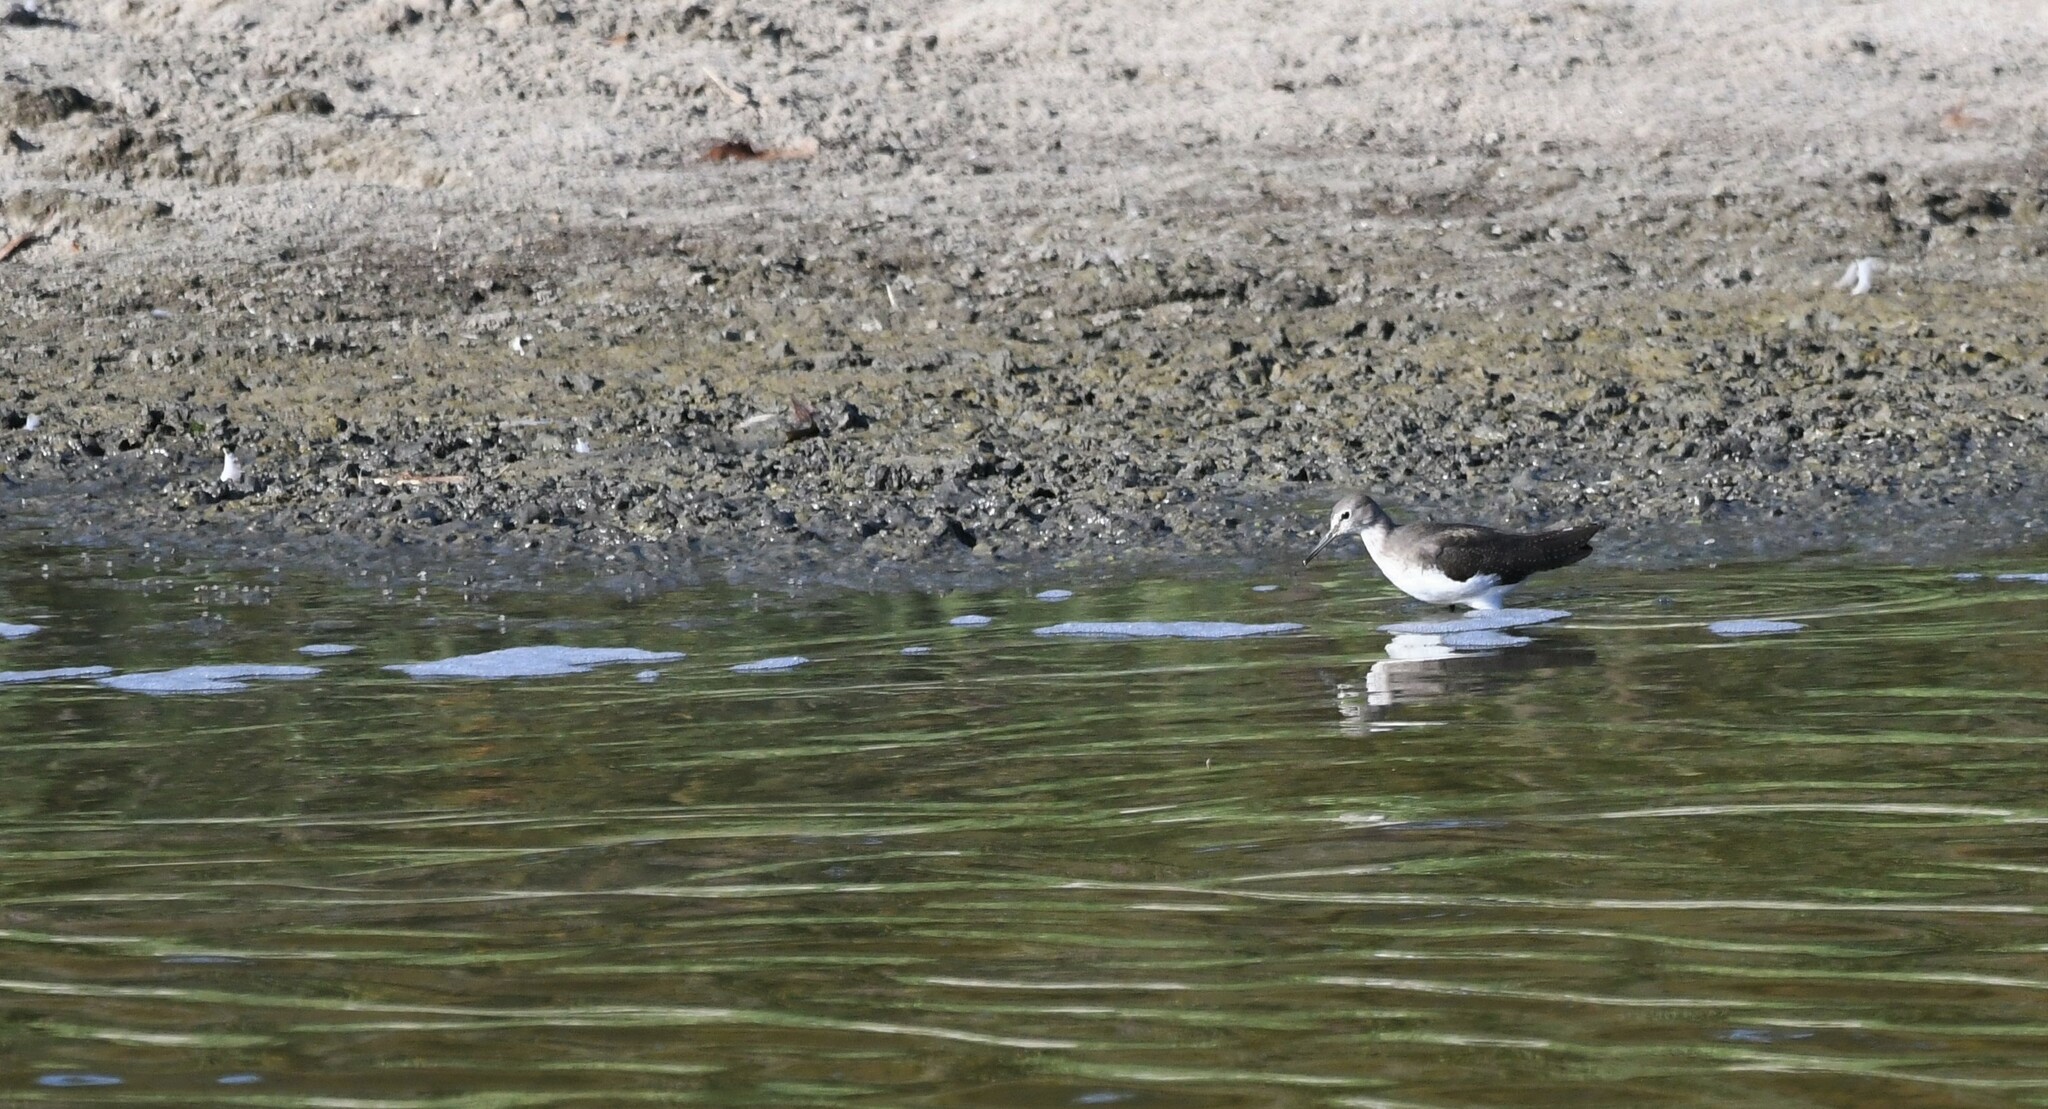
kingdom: Animalia
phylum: Chordata
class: Aves
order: Charadriiformes
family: Scolopacidae
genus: Tringa
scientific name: Tringa ochropus
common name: Green sandpiper
